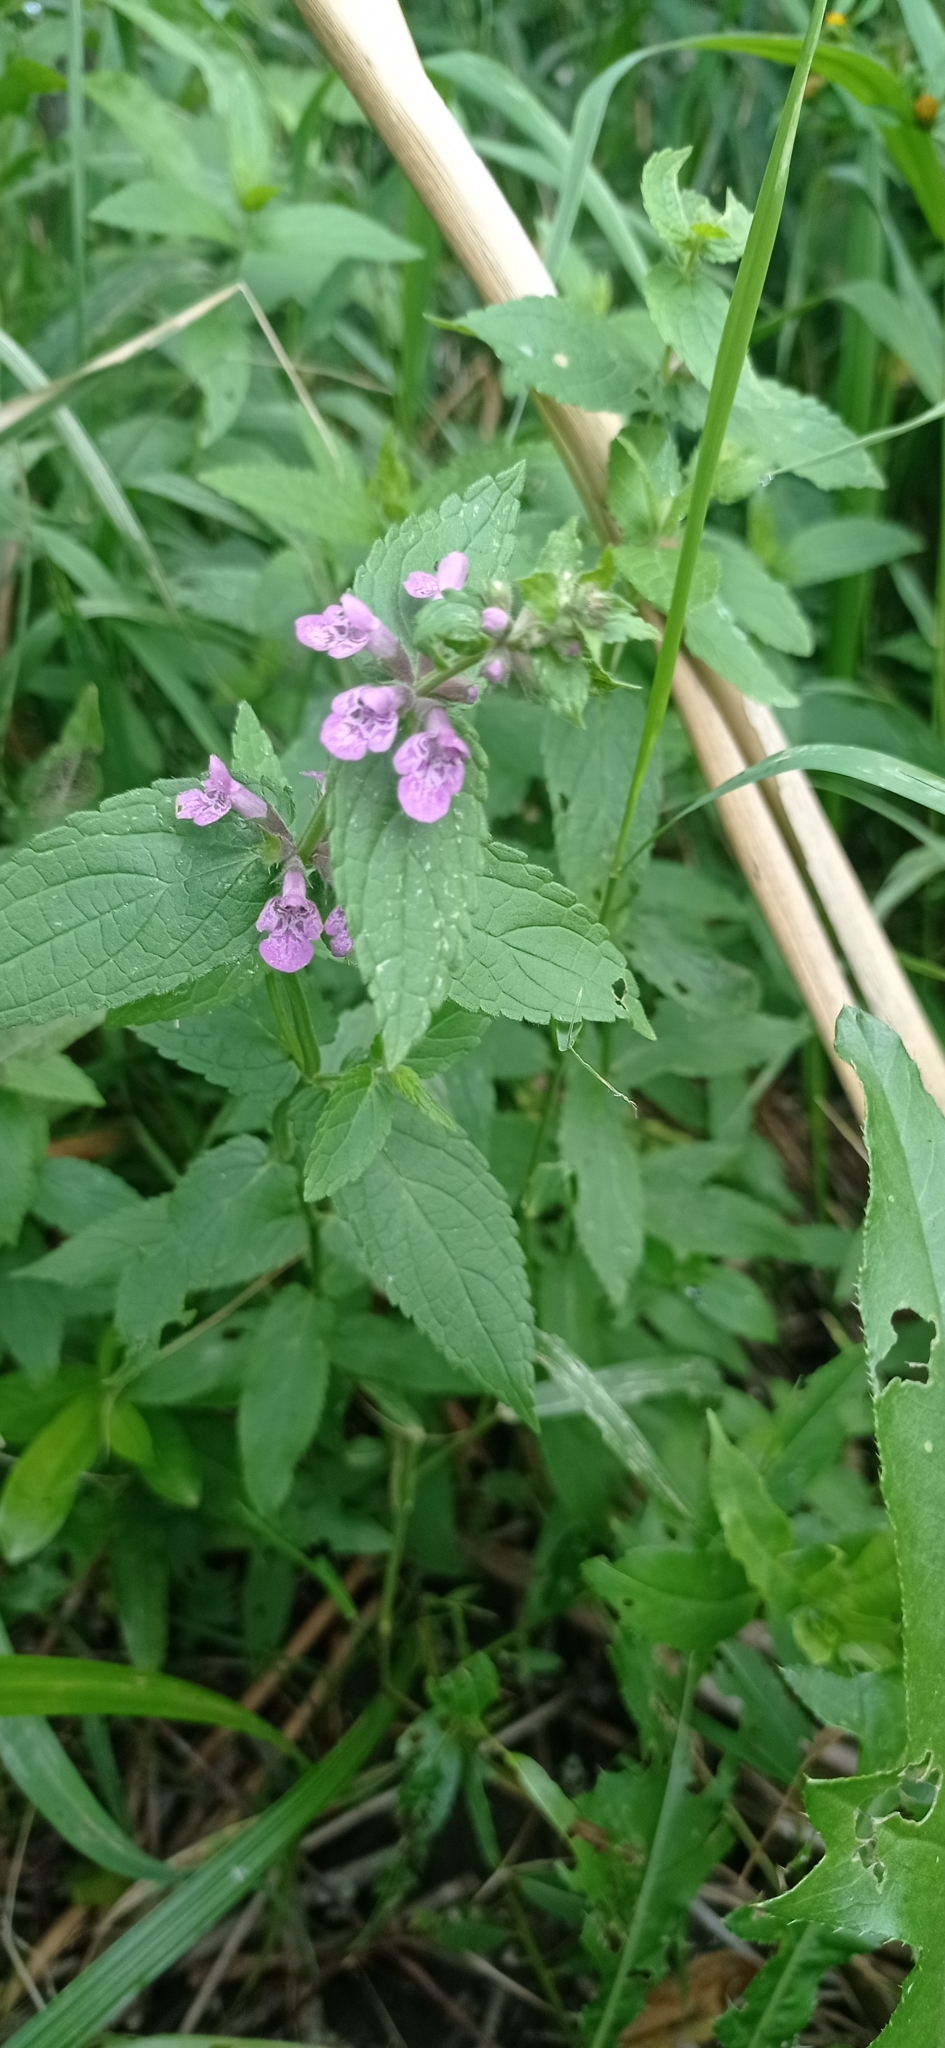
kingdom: Plantae
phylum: Tracheophyta
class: Magnoliopsida
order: Lamiales
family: Lamiaceae
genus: Stachys
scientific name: Stachys palustris
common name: Marsh woundwort
